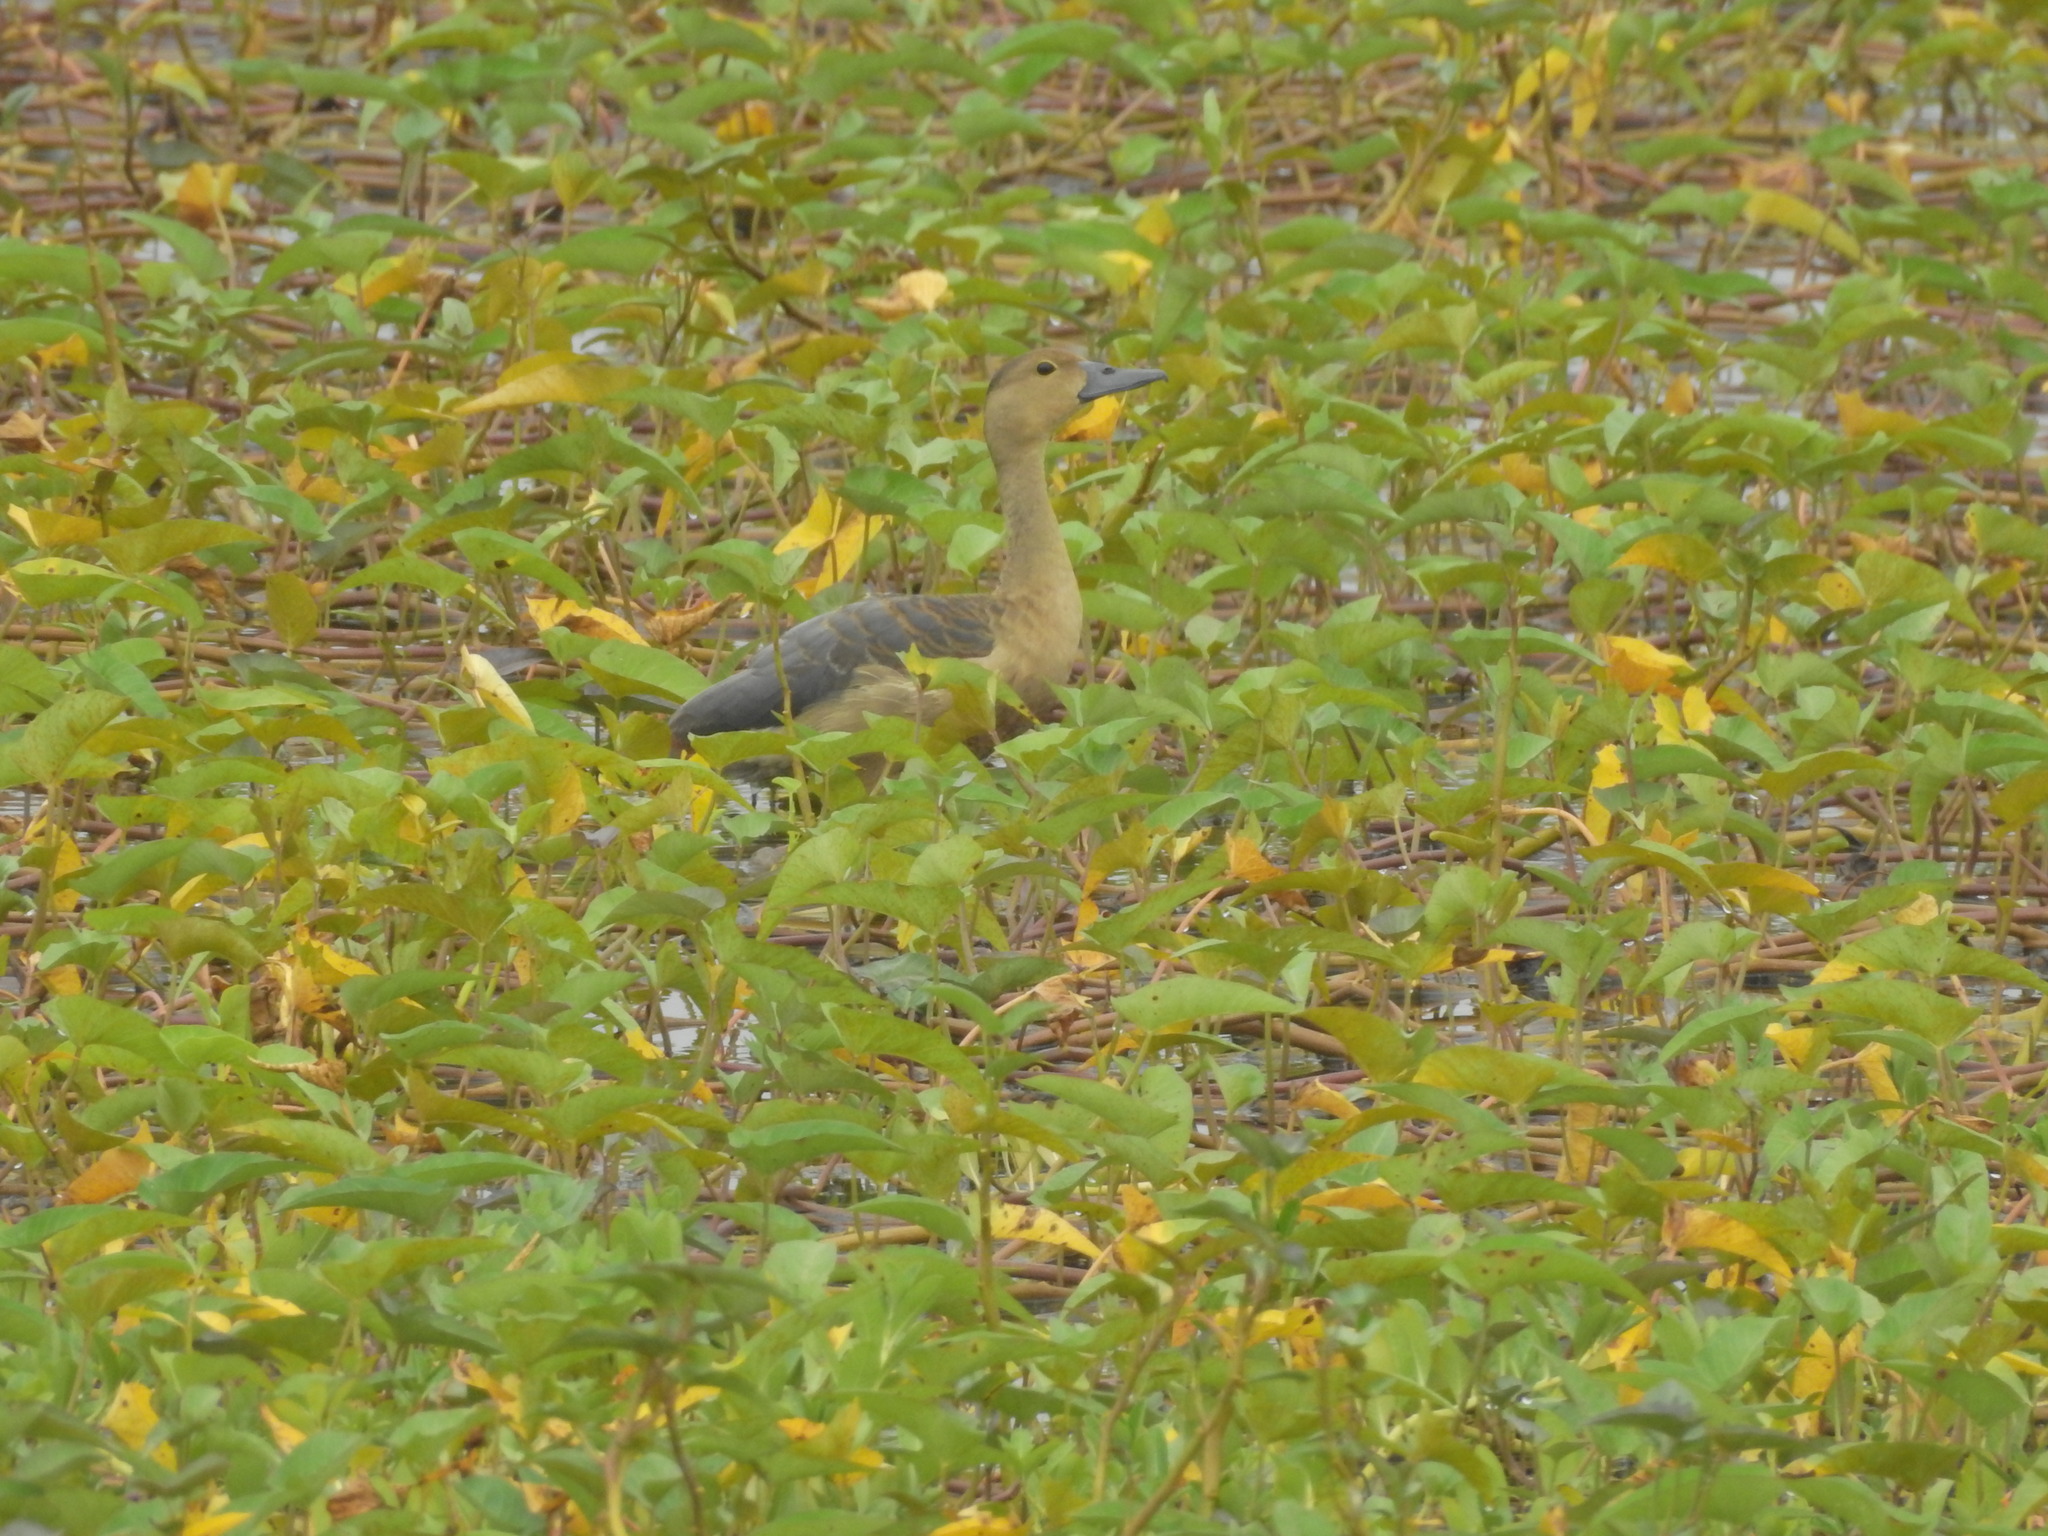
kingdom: Animalia
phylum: Chordata
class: Aves
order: Anseriformes
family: Anatidae
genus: Dendrocygna
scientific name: Dendrocygna javanica
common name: Lesser whistling-duck
